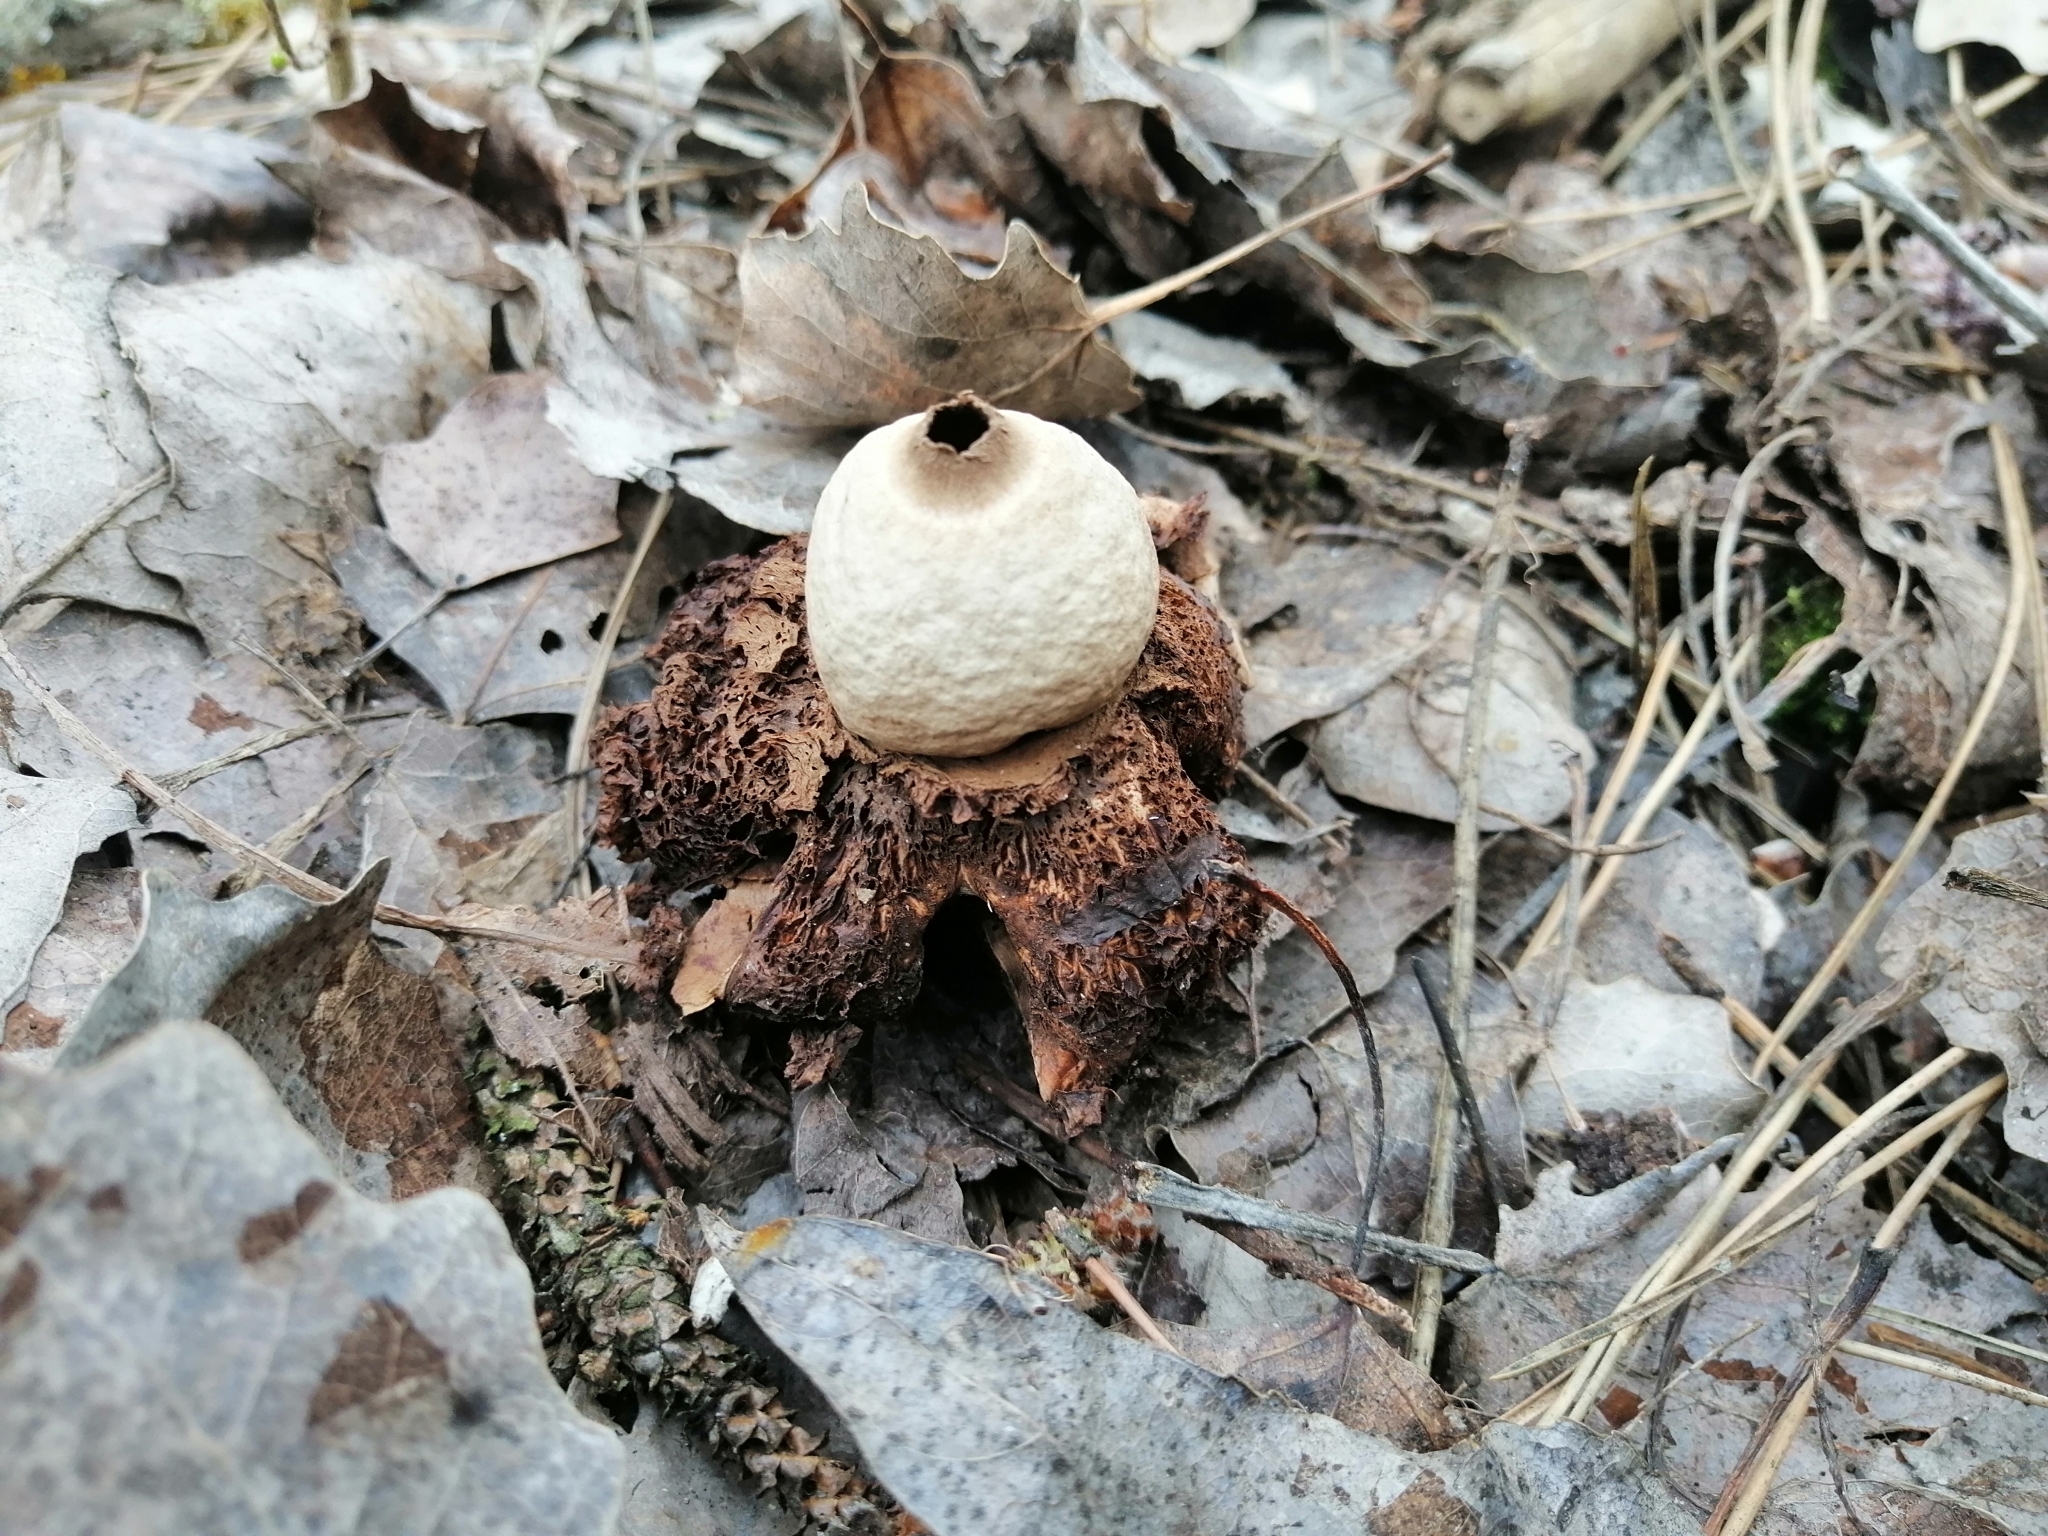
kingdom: Fungi
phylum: Basidiomycota
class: Agaricomycetes
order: Geastrales
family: Geastraceae
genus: Geastrum
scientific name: Geastrum triplex
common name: Collared earthstar
